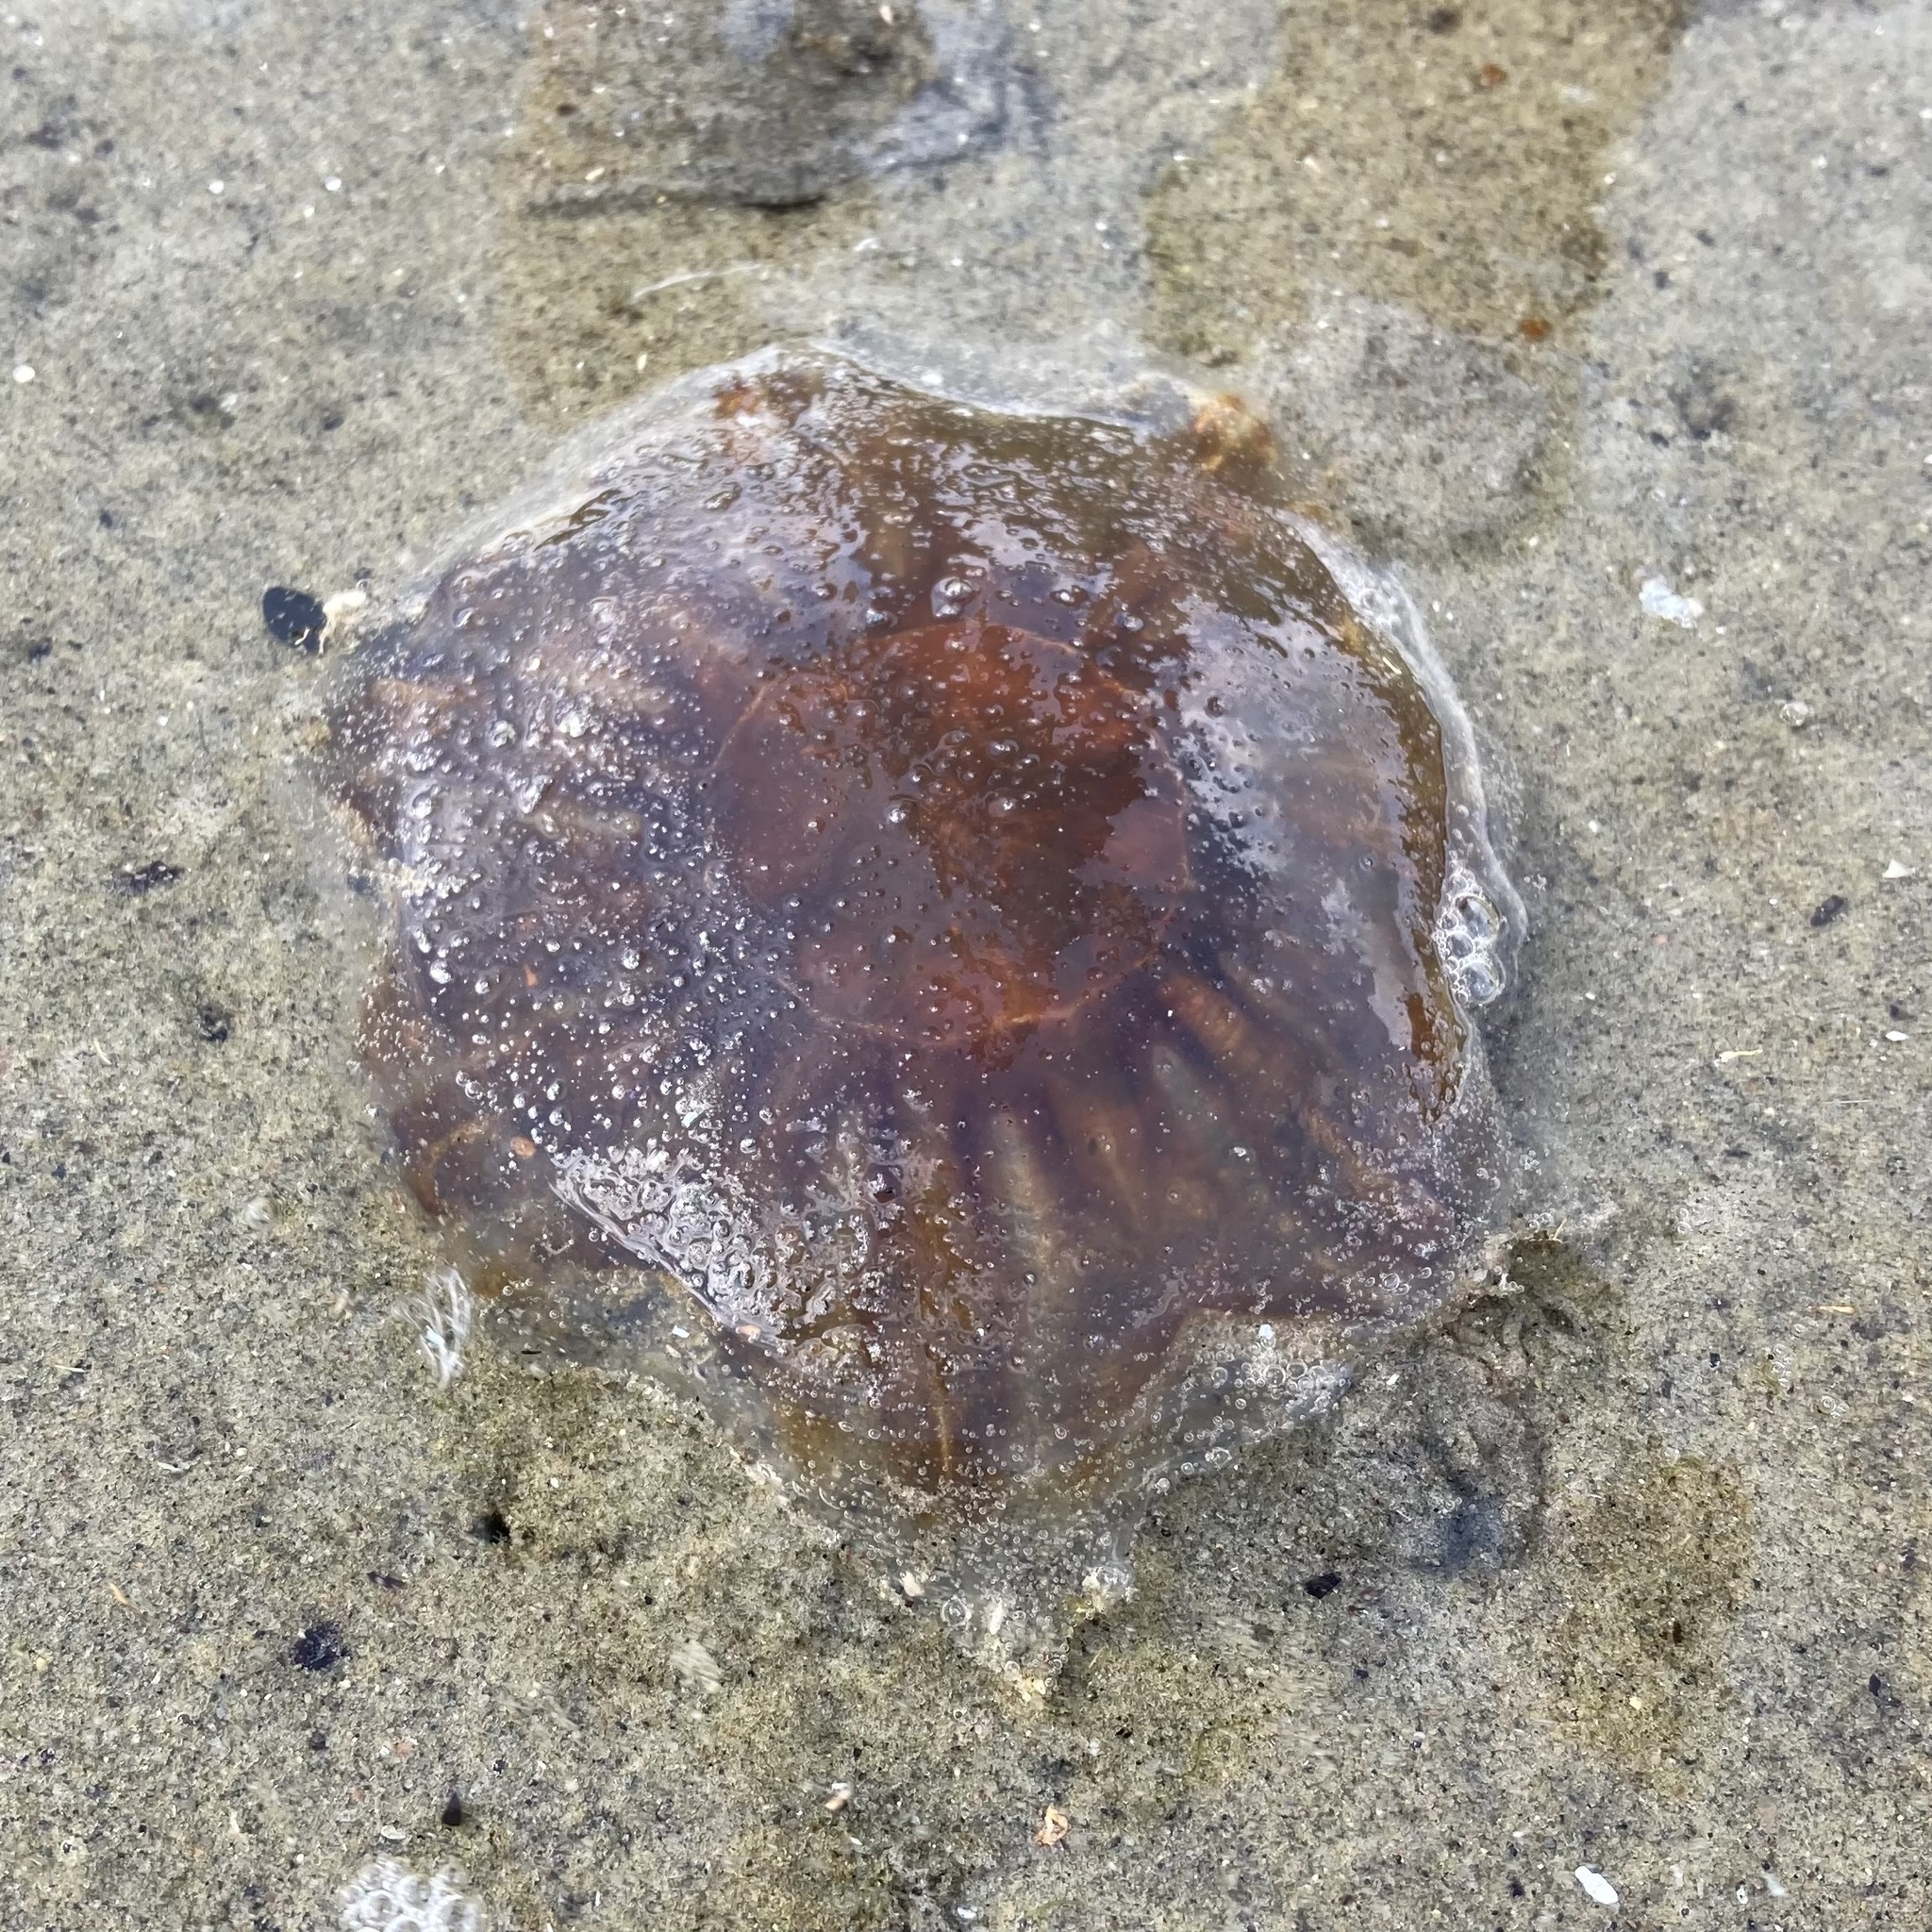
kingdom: Animalia
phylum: Cnidaria
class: Scyphozoa
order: Semaeostomeae
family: Cyaneidae
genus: Cyanea
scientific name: Cyanea capillata
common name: Lion's mane jellyfish
